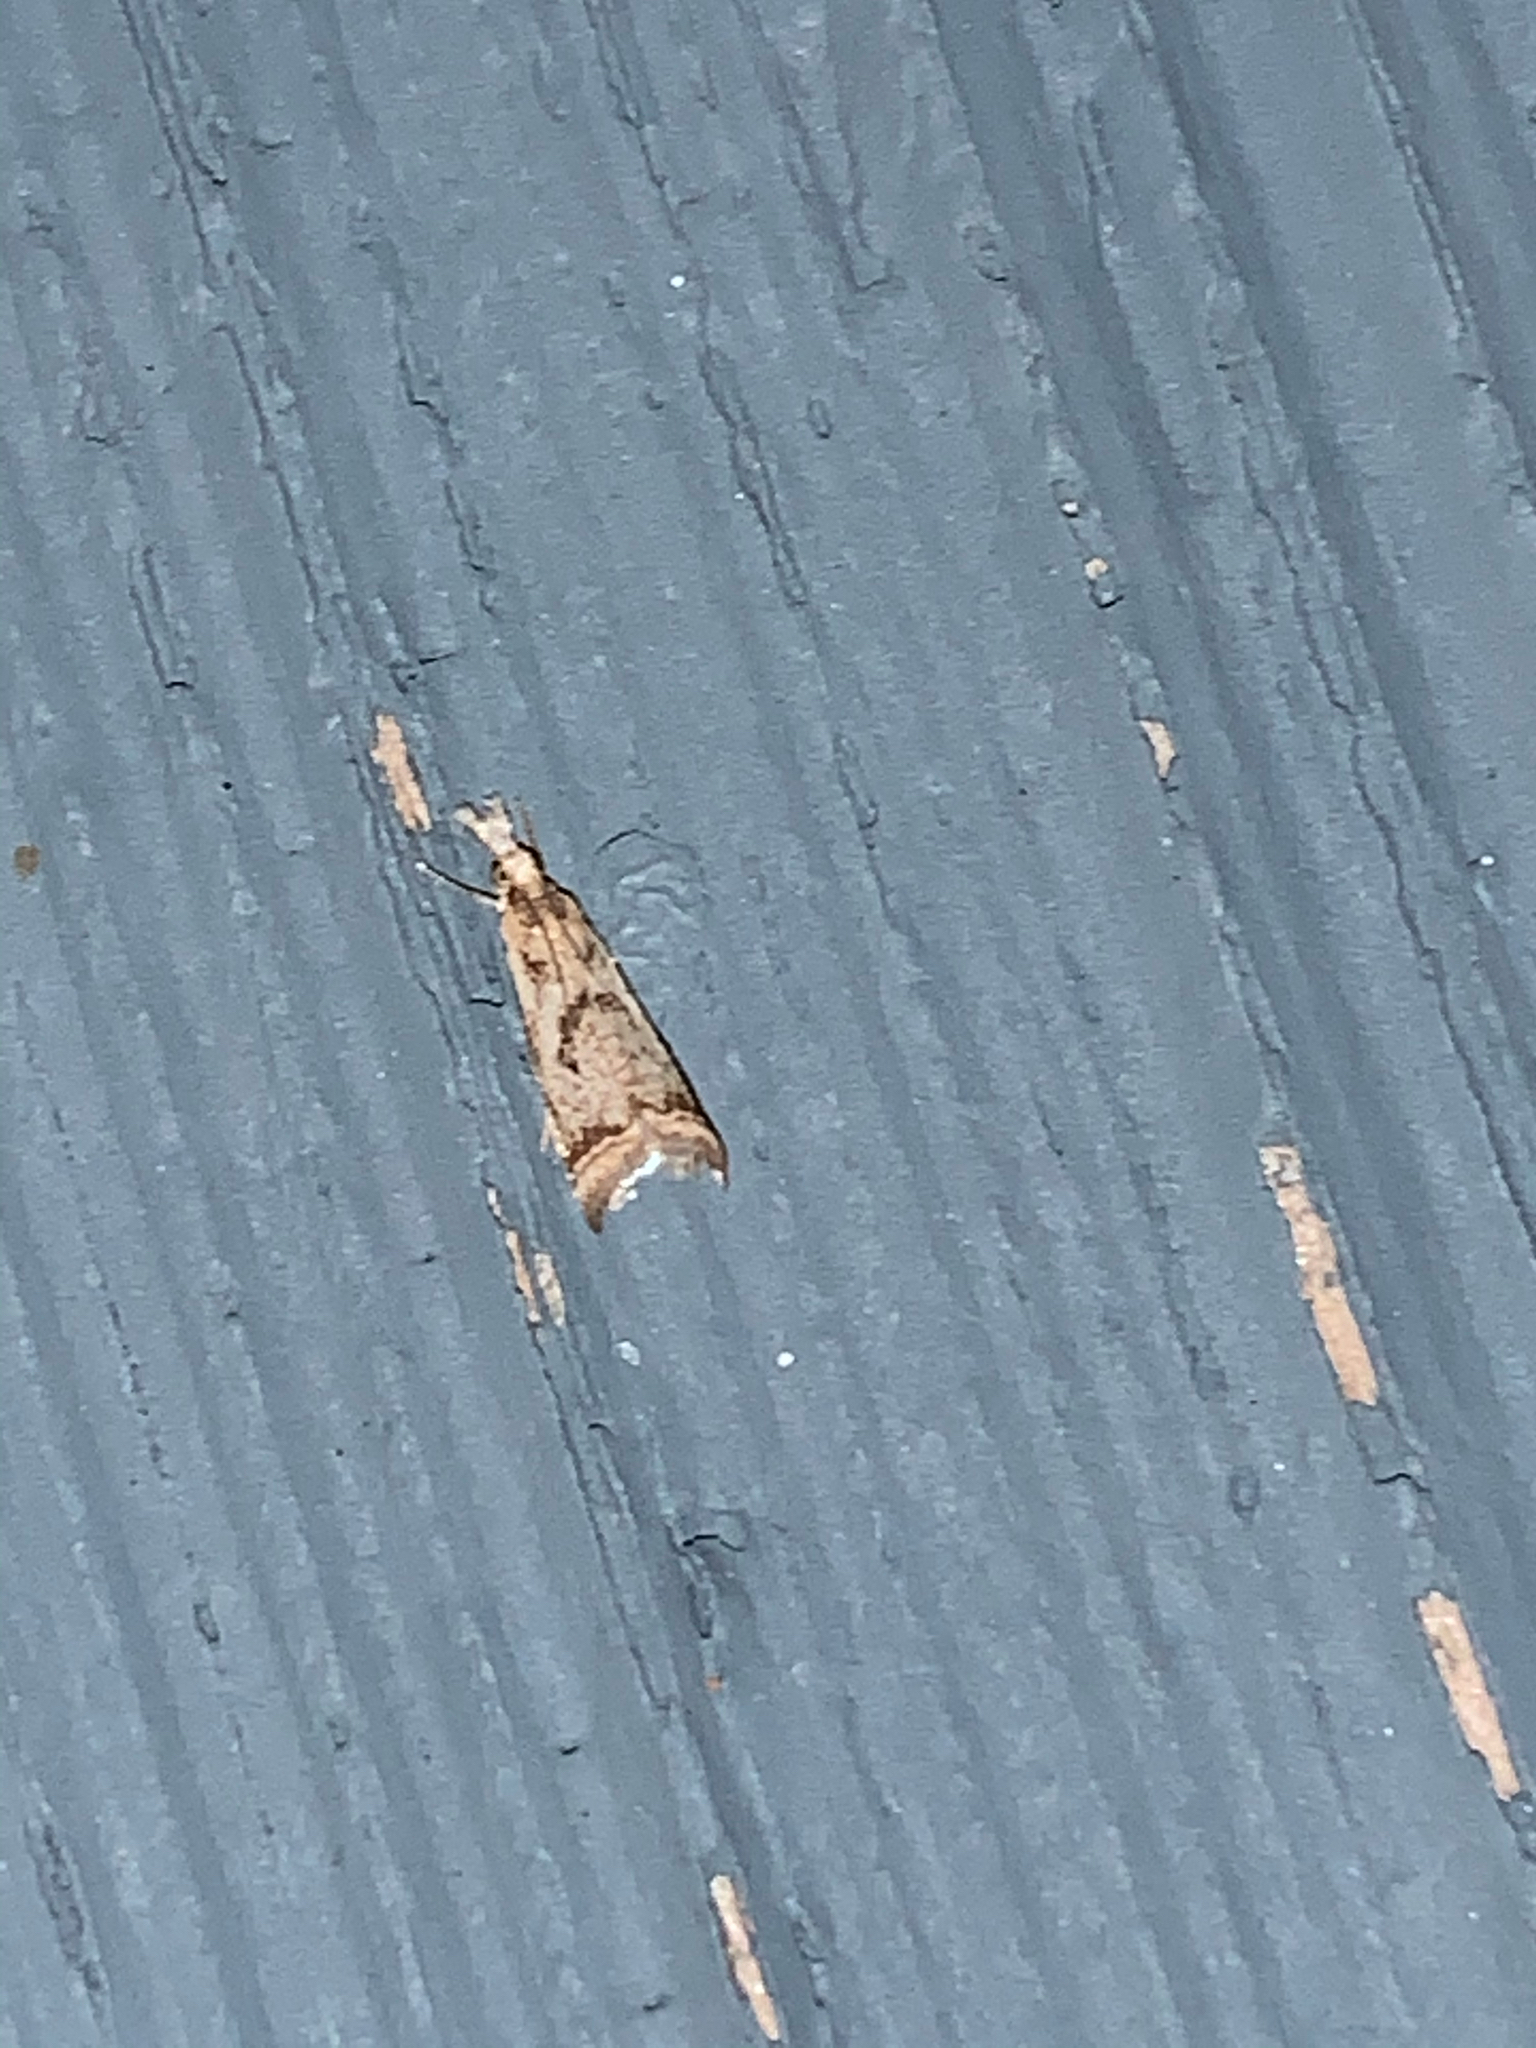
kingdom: Animalia
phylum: Arthropoda
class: Insecta
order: Lepidoptera
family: Crambidae
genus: Microcrambus
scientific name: Microcrambus elegans
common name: Elegant grass-veneer
